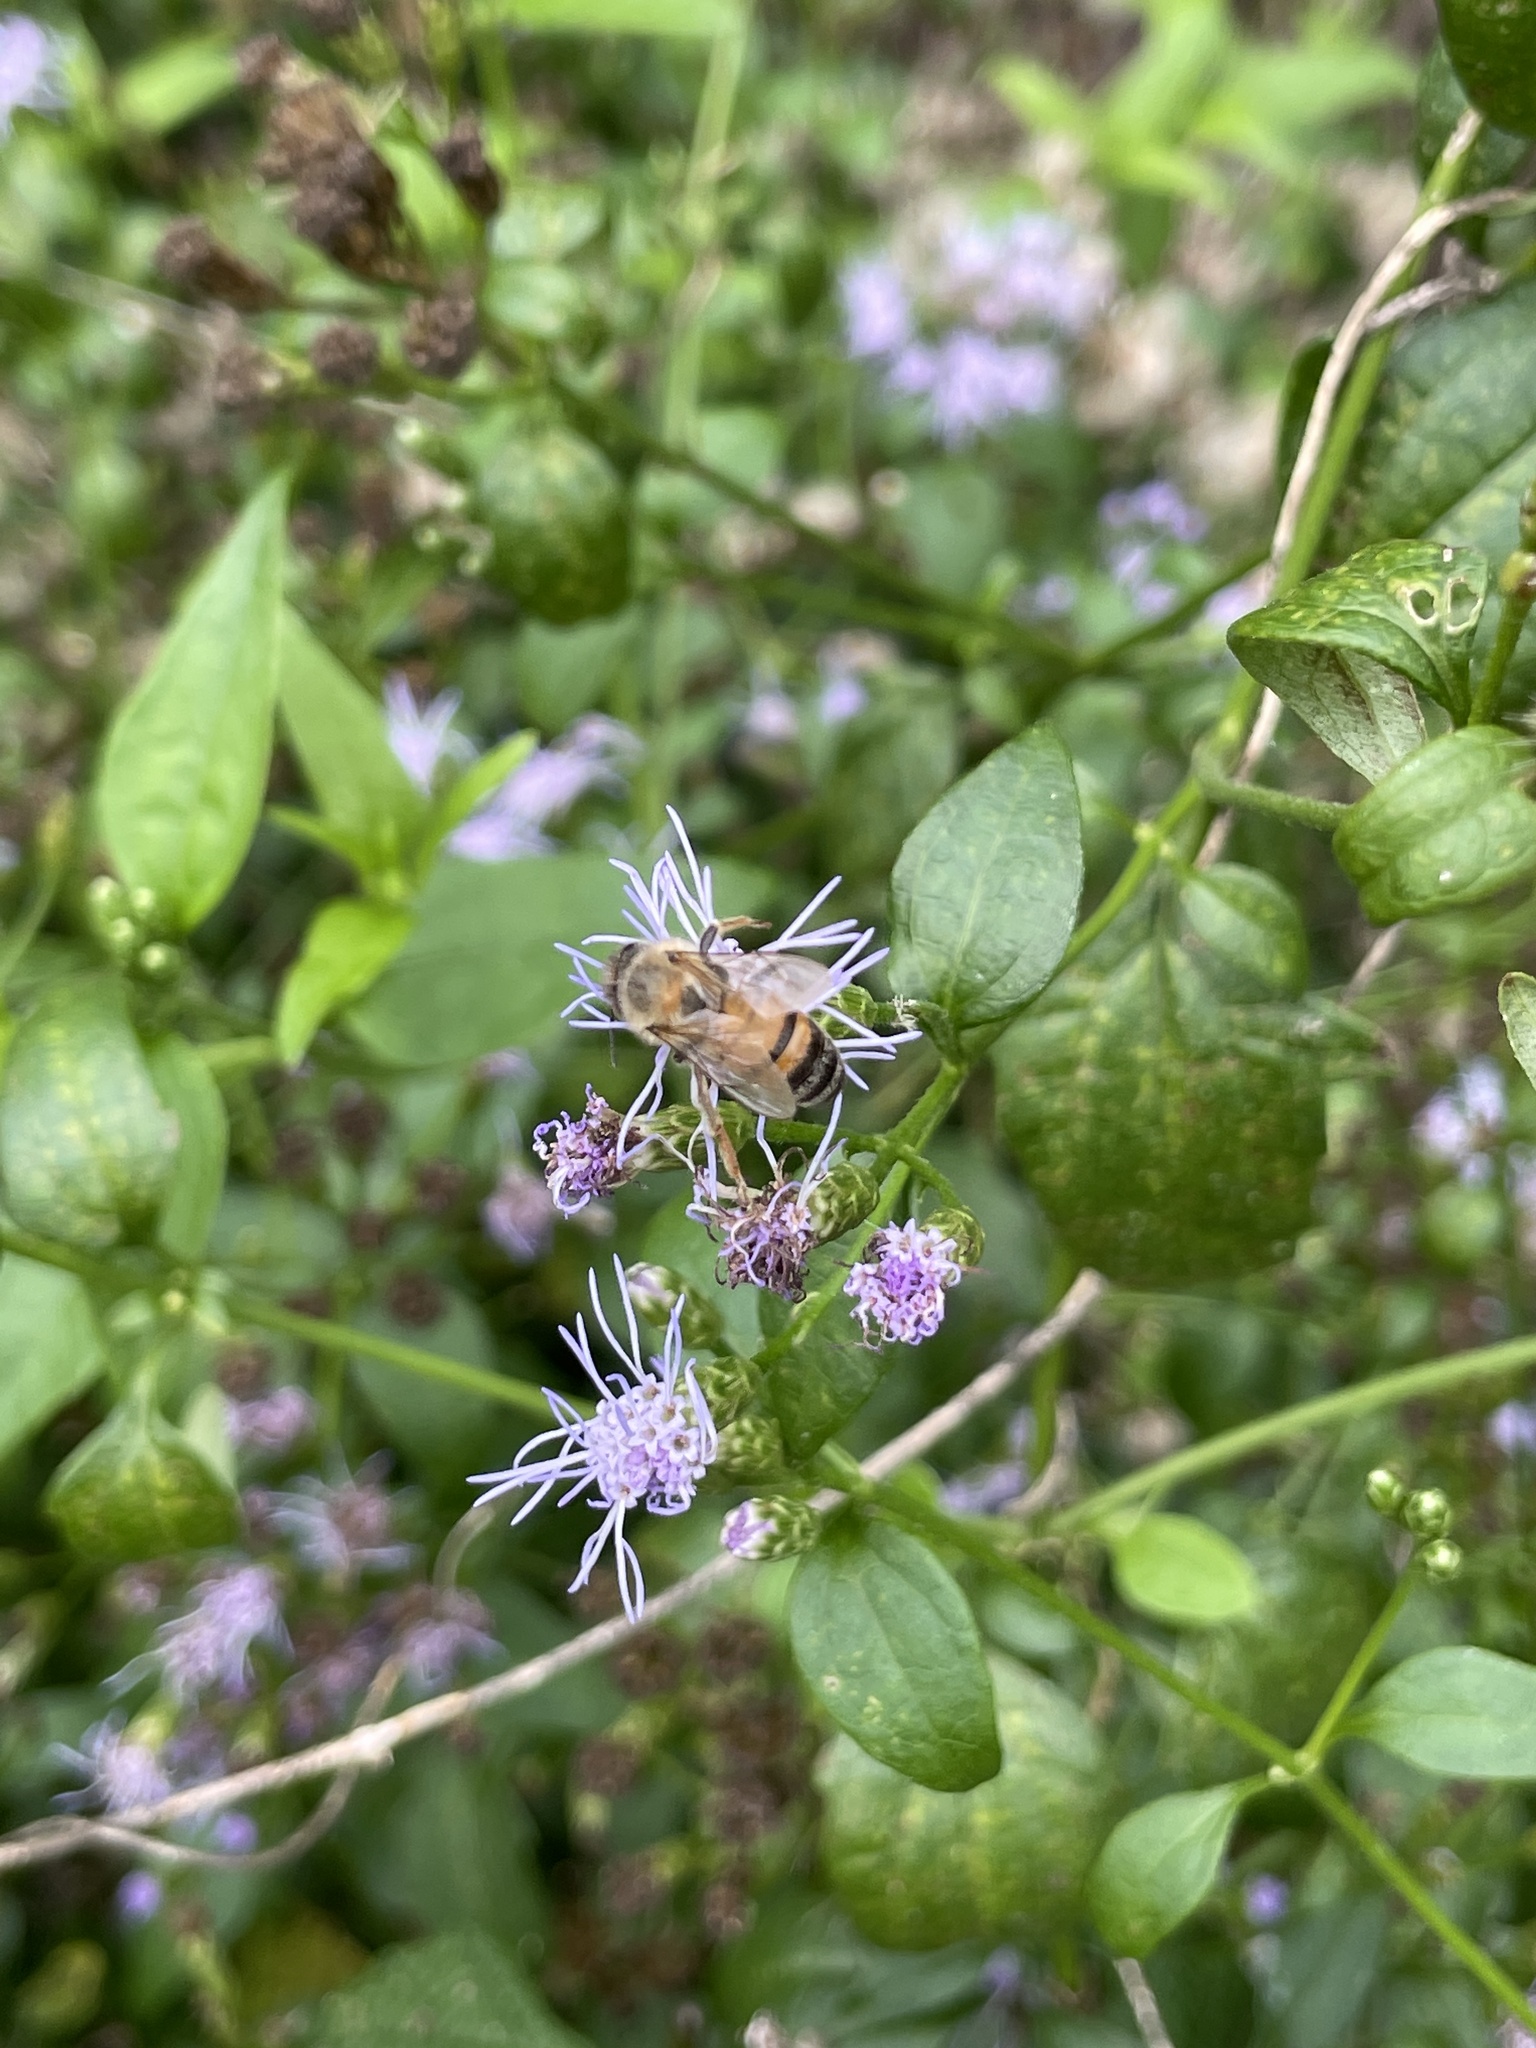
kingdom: Animalia
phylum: Arthropoda
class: Insecta
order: Hymenoptera
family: Apidae
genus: Apis
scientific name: Apis mellifera
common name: Honey bee
